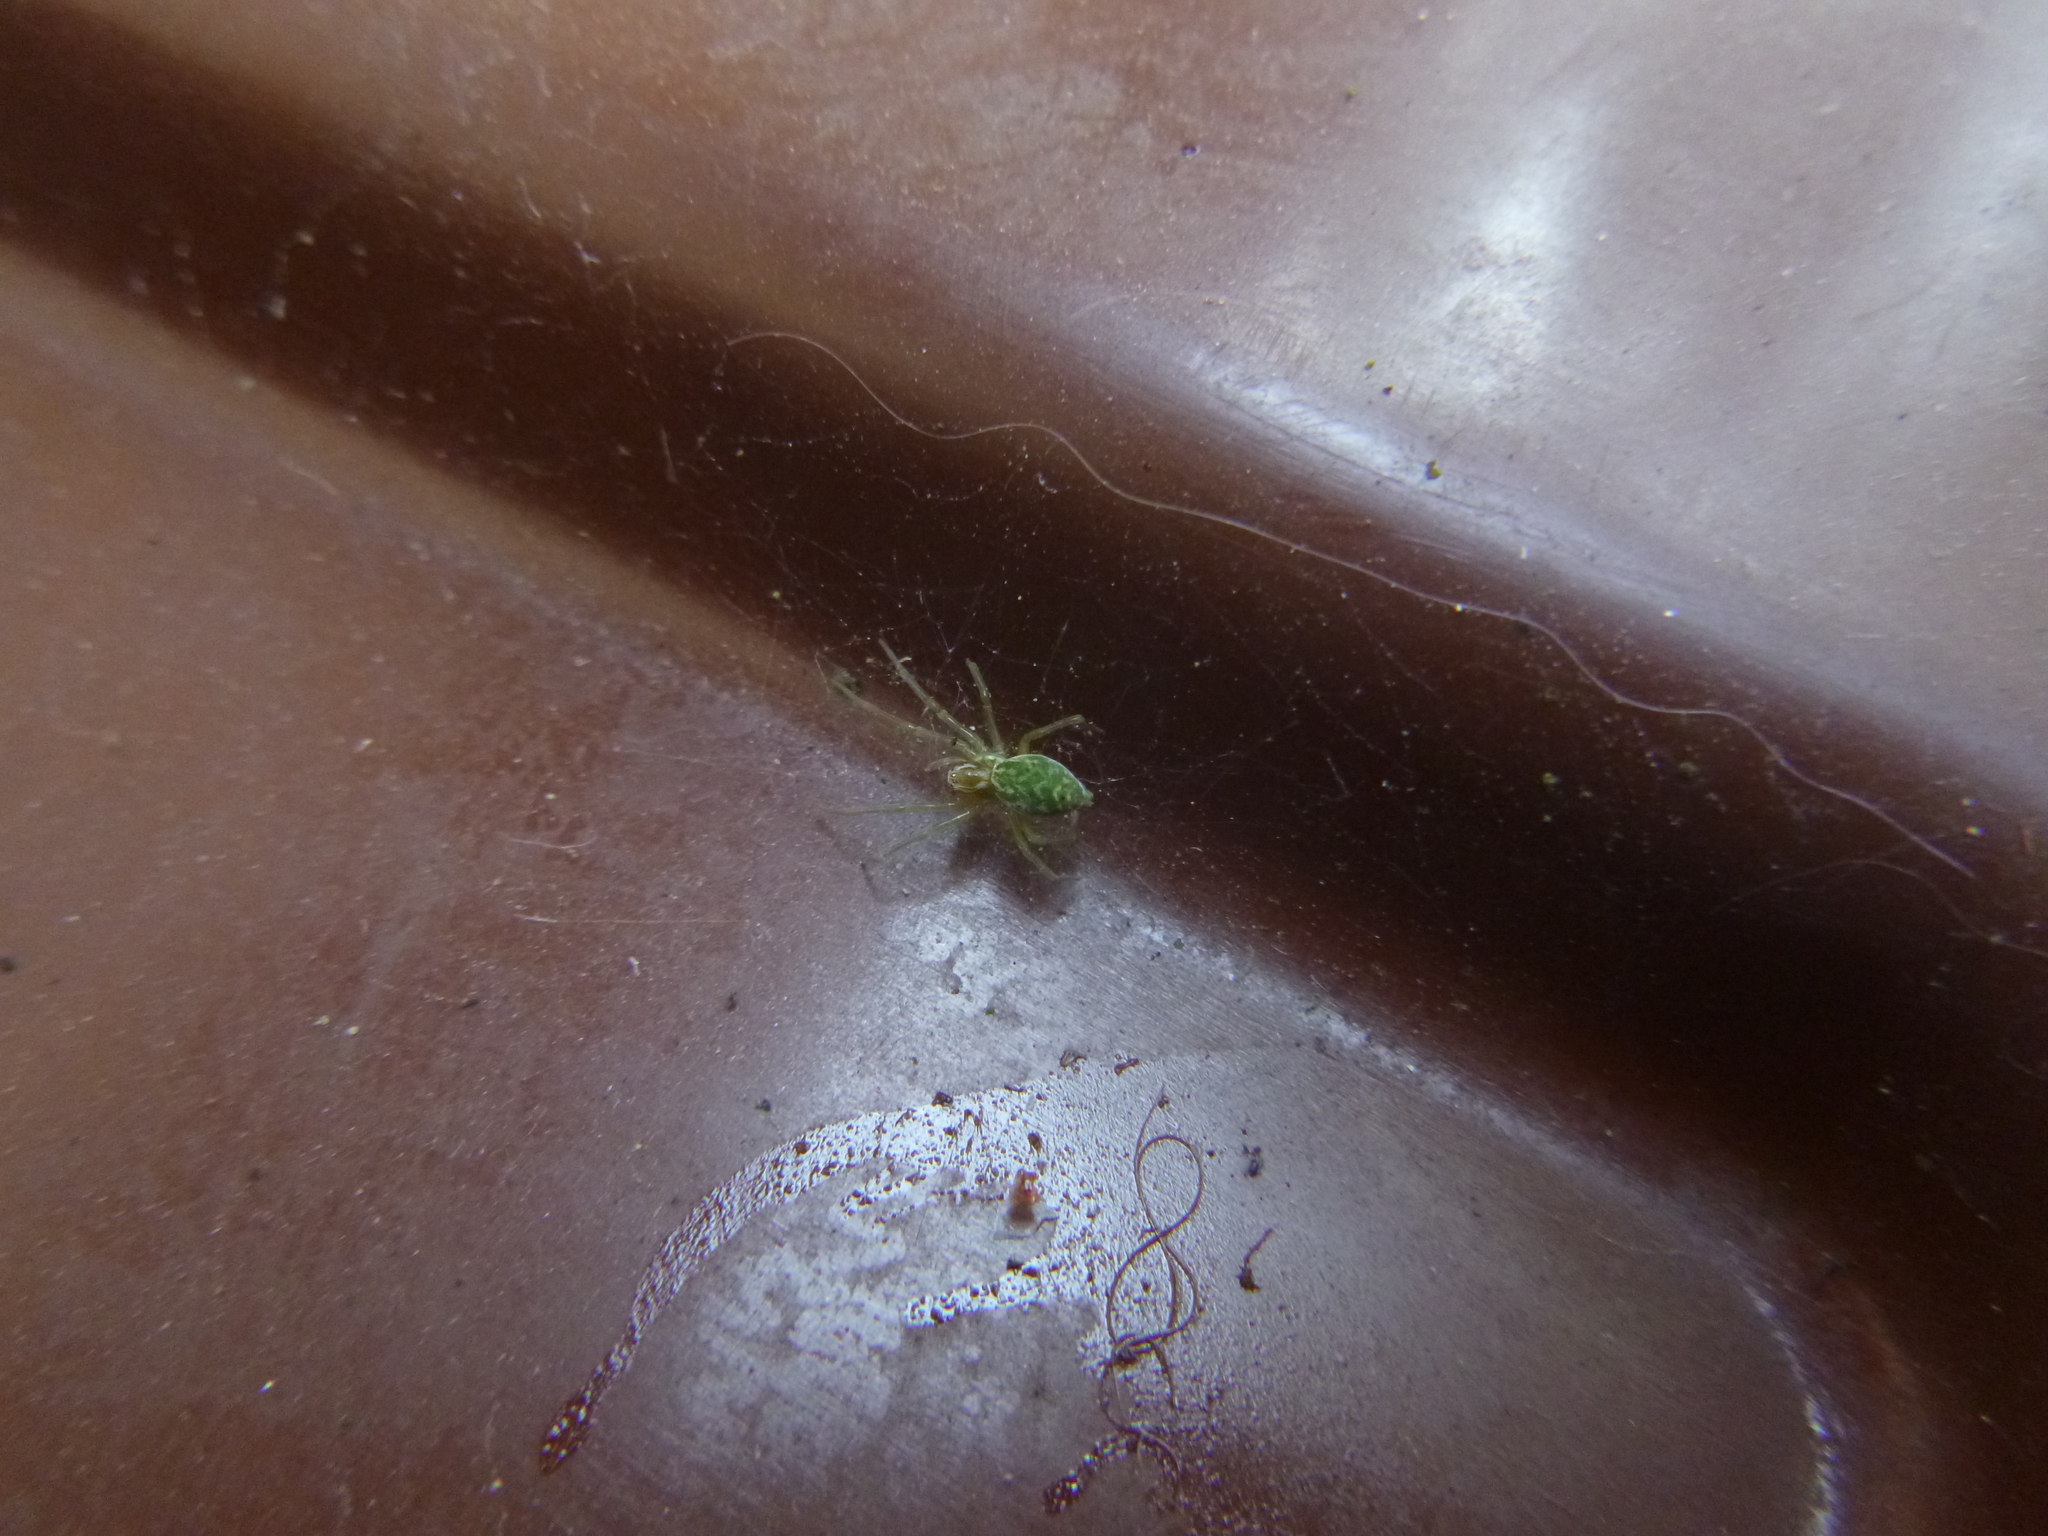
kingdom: Animalia
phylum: Arthropoda
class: Arachnida
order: Araneae
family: Dictynidae
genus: Nigma
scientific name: Nigma walckenaeri
